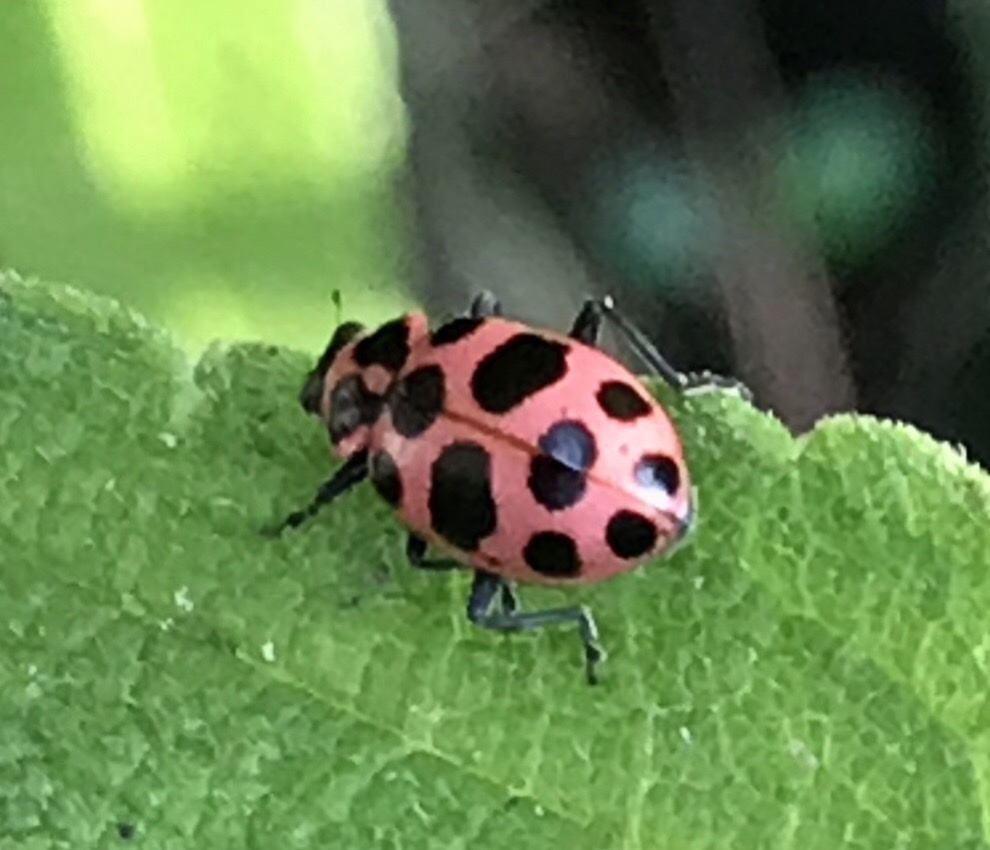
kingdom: Animalia
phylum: Arthropoda
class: Insecta
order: Coleoptera
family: Coccinellidae
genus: Coleomegilla
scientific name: Coleomegilla maculata
